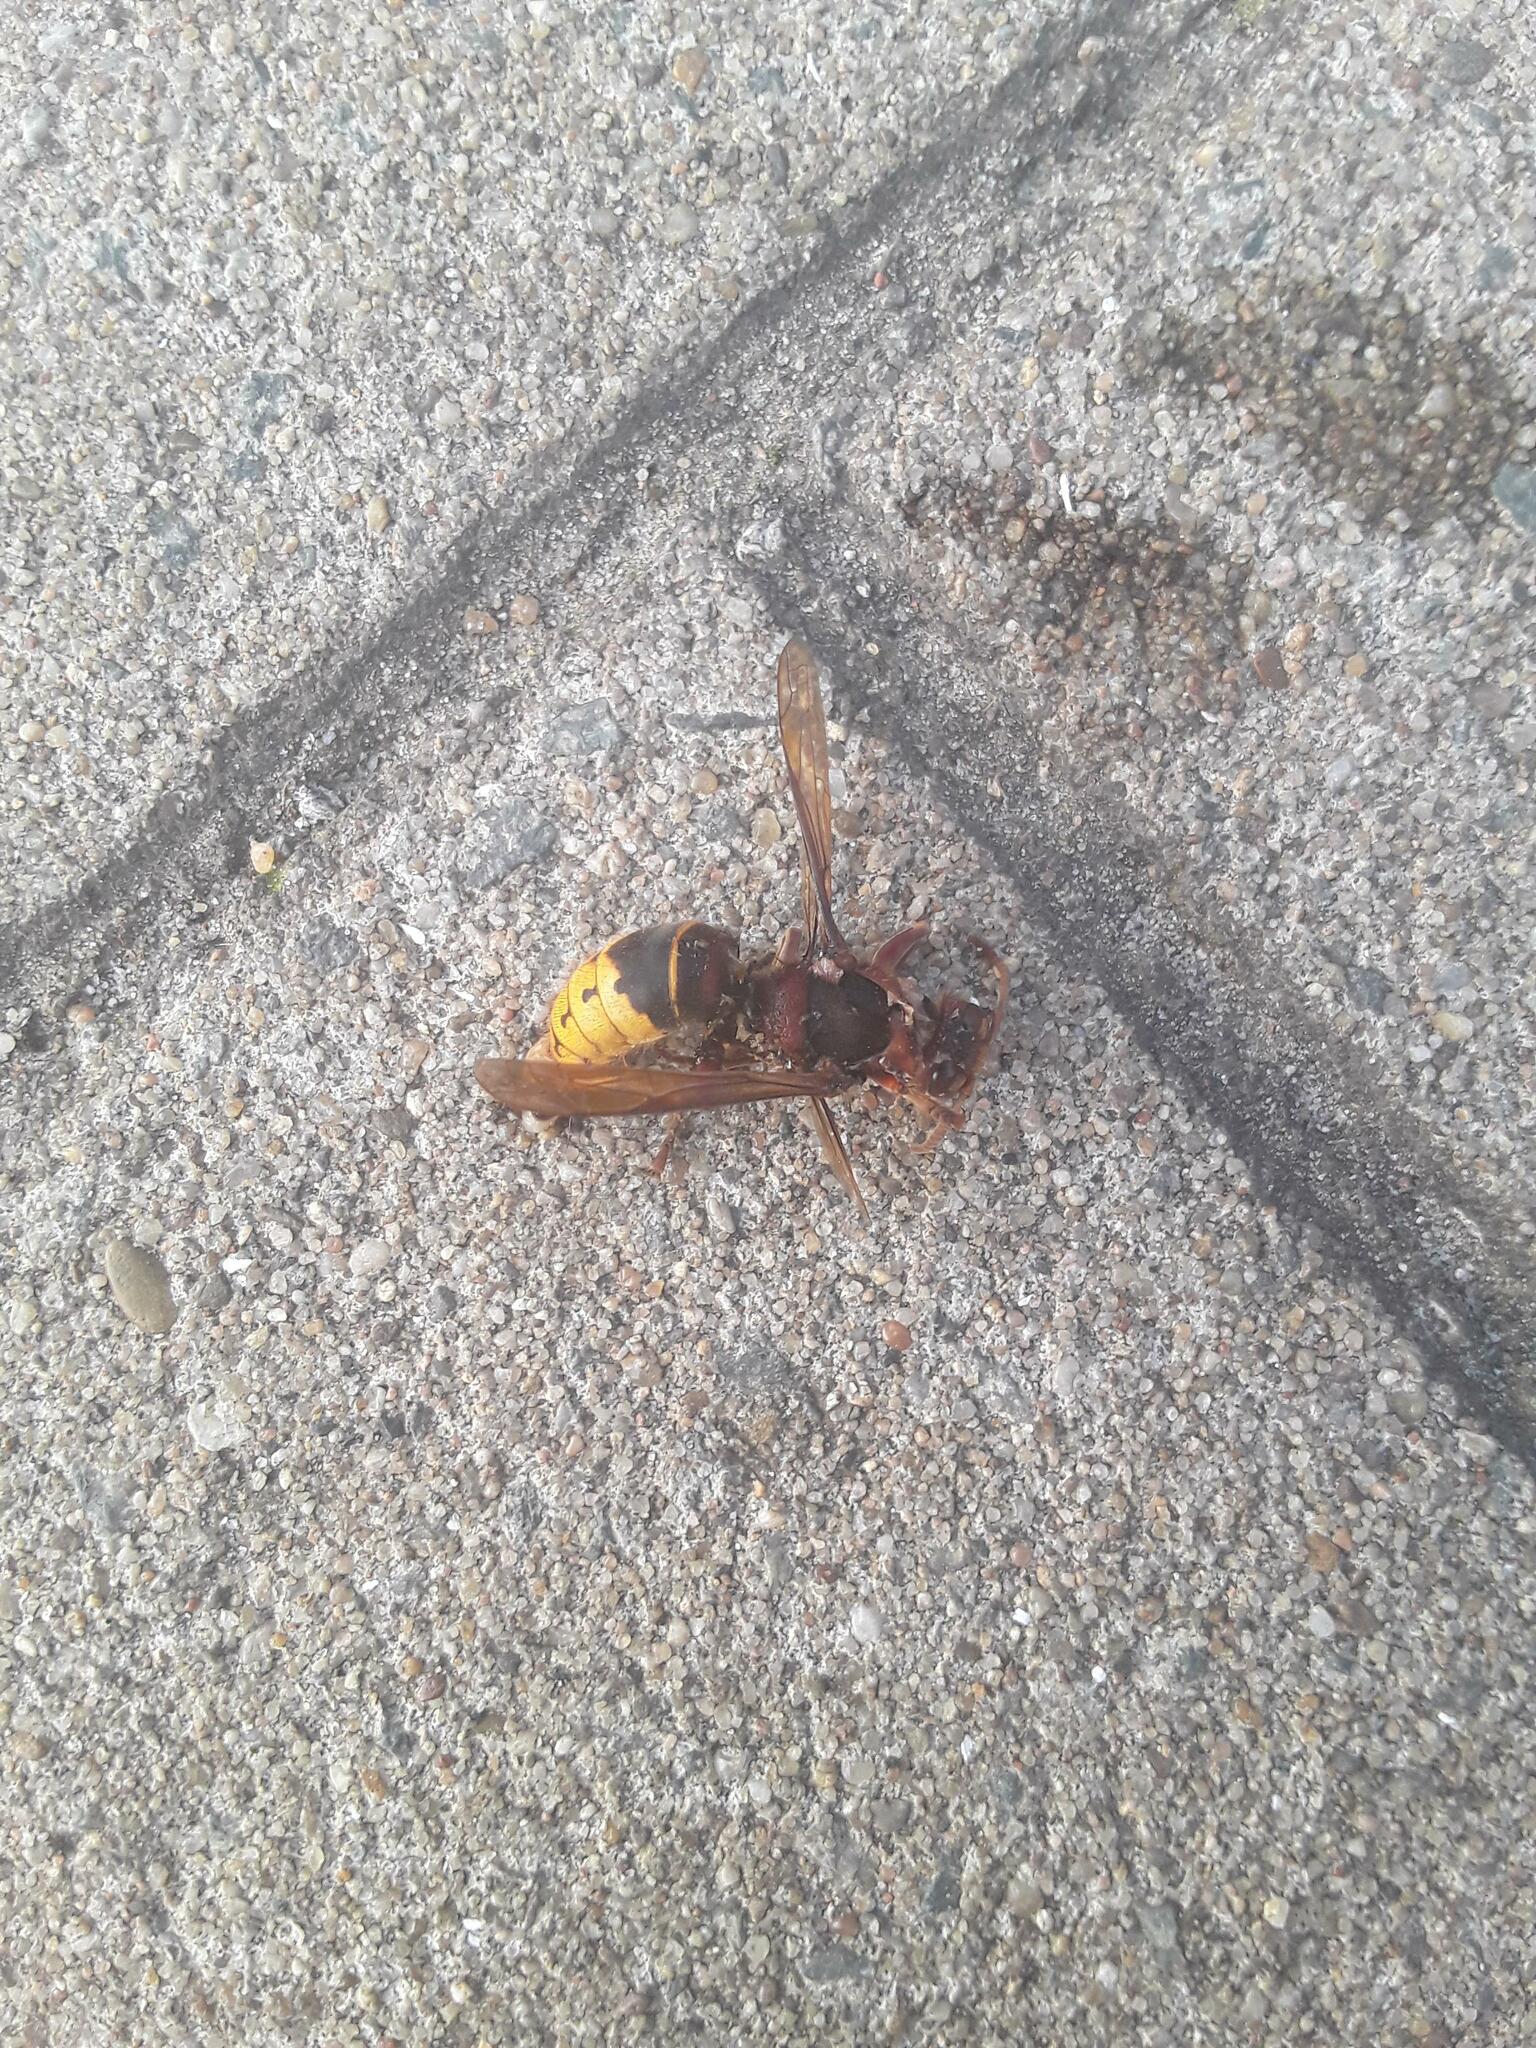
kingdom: Animalia
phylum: Arthropoda
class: Insecta
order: Hymenoptera
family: Vespidae
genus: Vespa
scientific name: Vespa crabro
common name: Hornet
